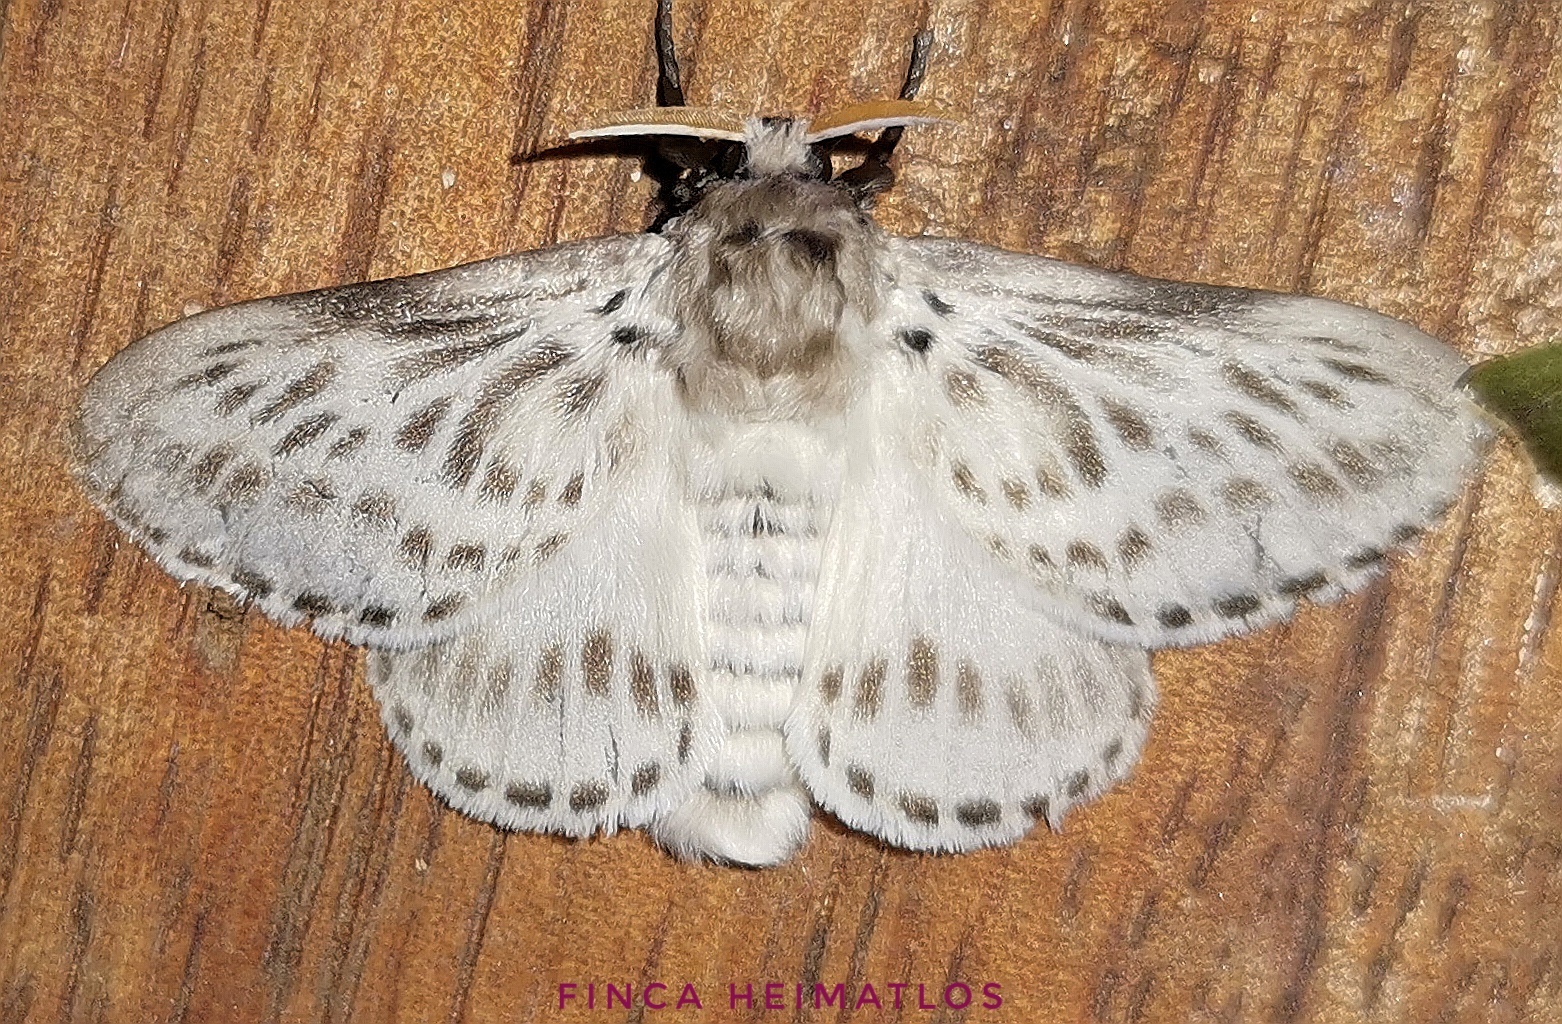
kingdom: Animalia
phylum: Arthropoda
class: Insecta
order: Lepidoptera
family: Megalopygidae
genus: Podalia
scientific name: Podalia gamelia
